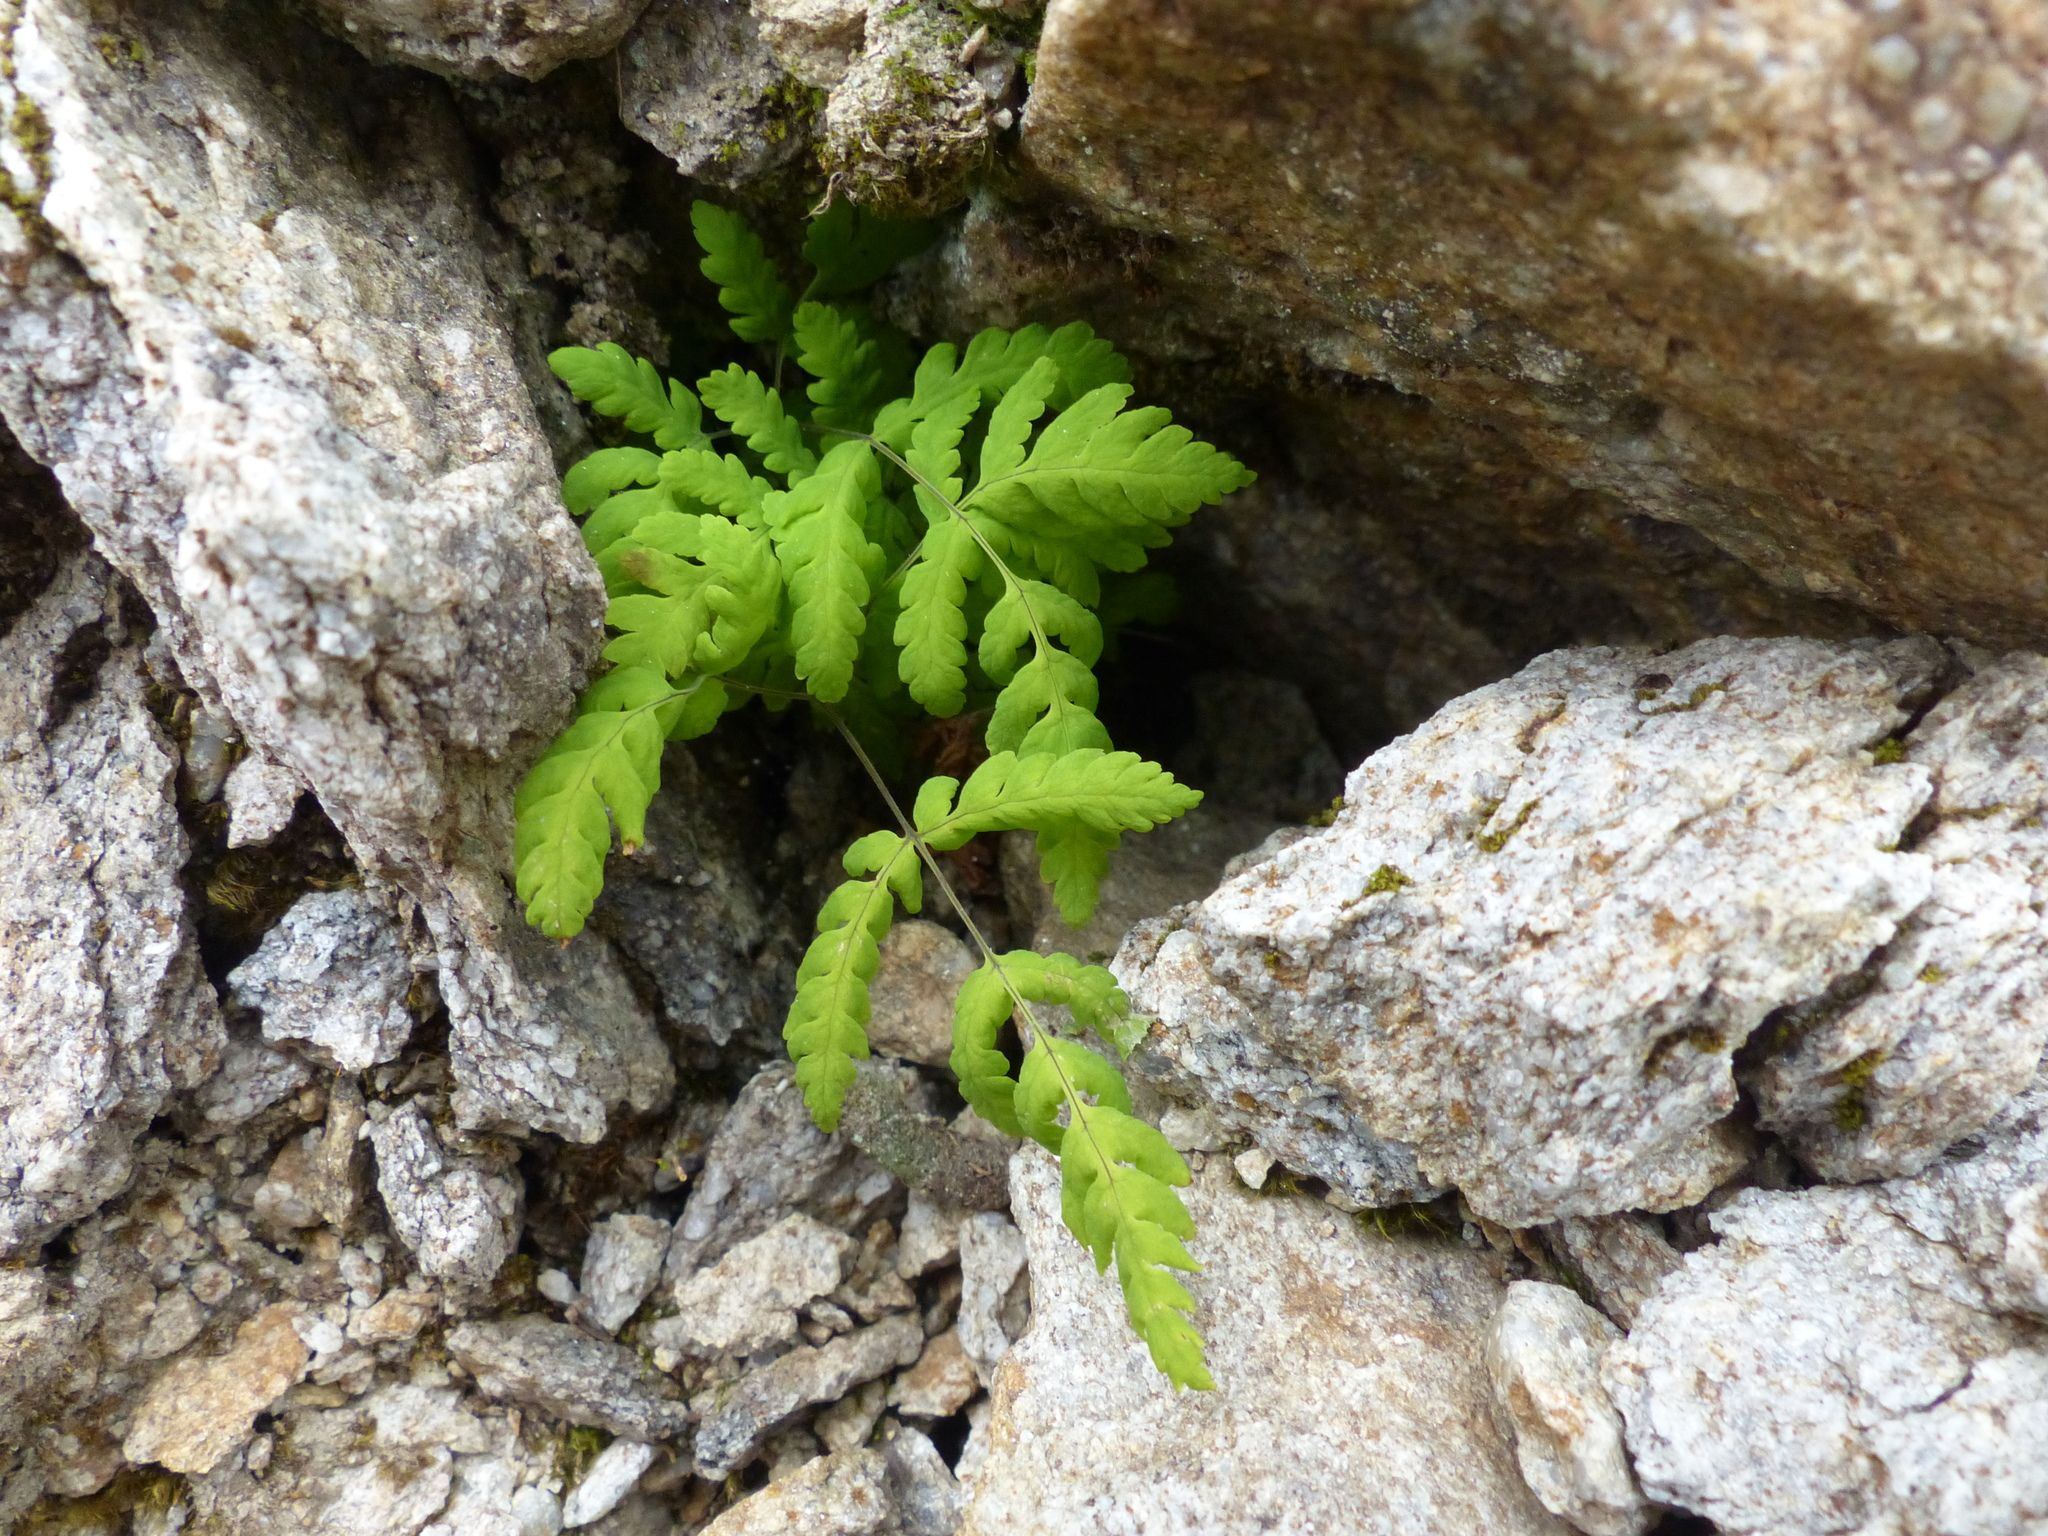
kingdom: Plantae
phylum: Tracheophyta
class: Polypodiopsida
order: Polypodiales
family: Cystopteridaceae
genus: Gymnocarpium
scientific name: Gymnocarpium dryopteris
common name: Oak fern
